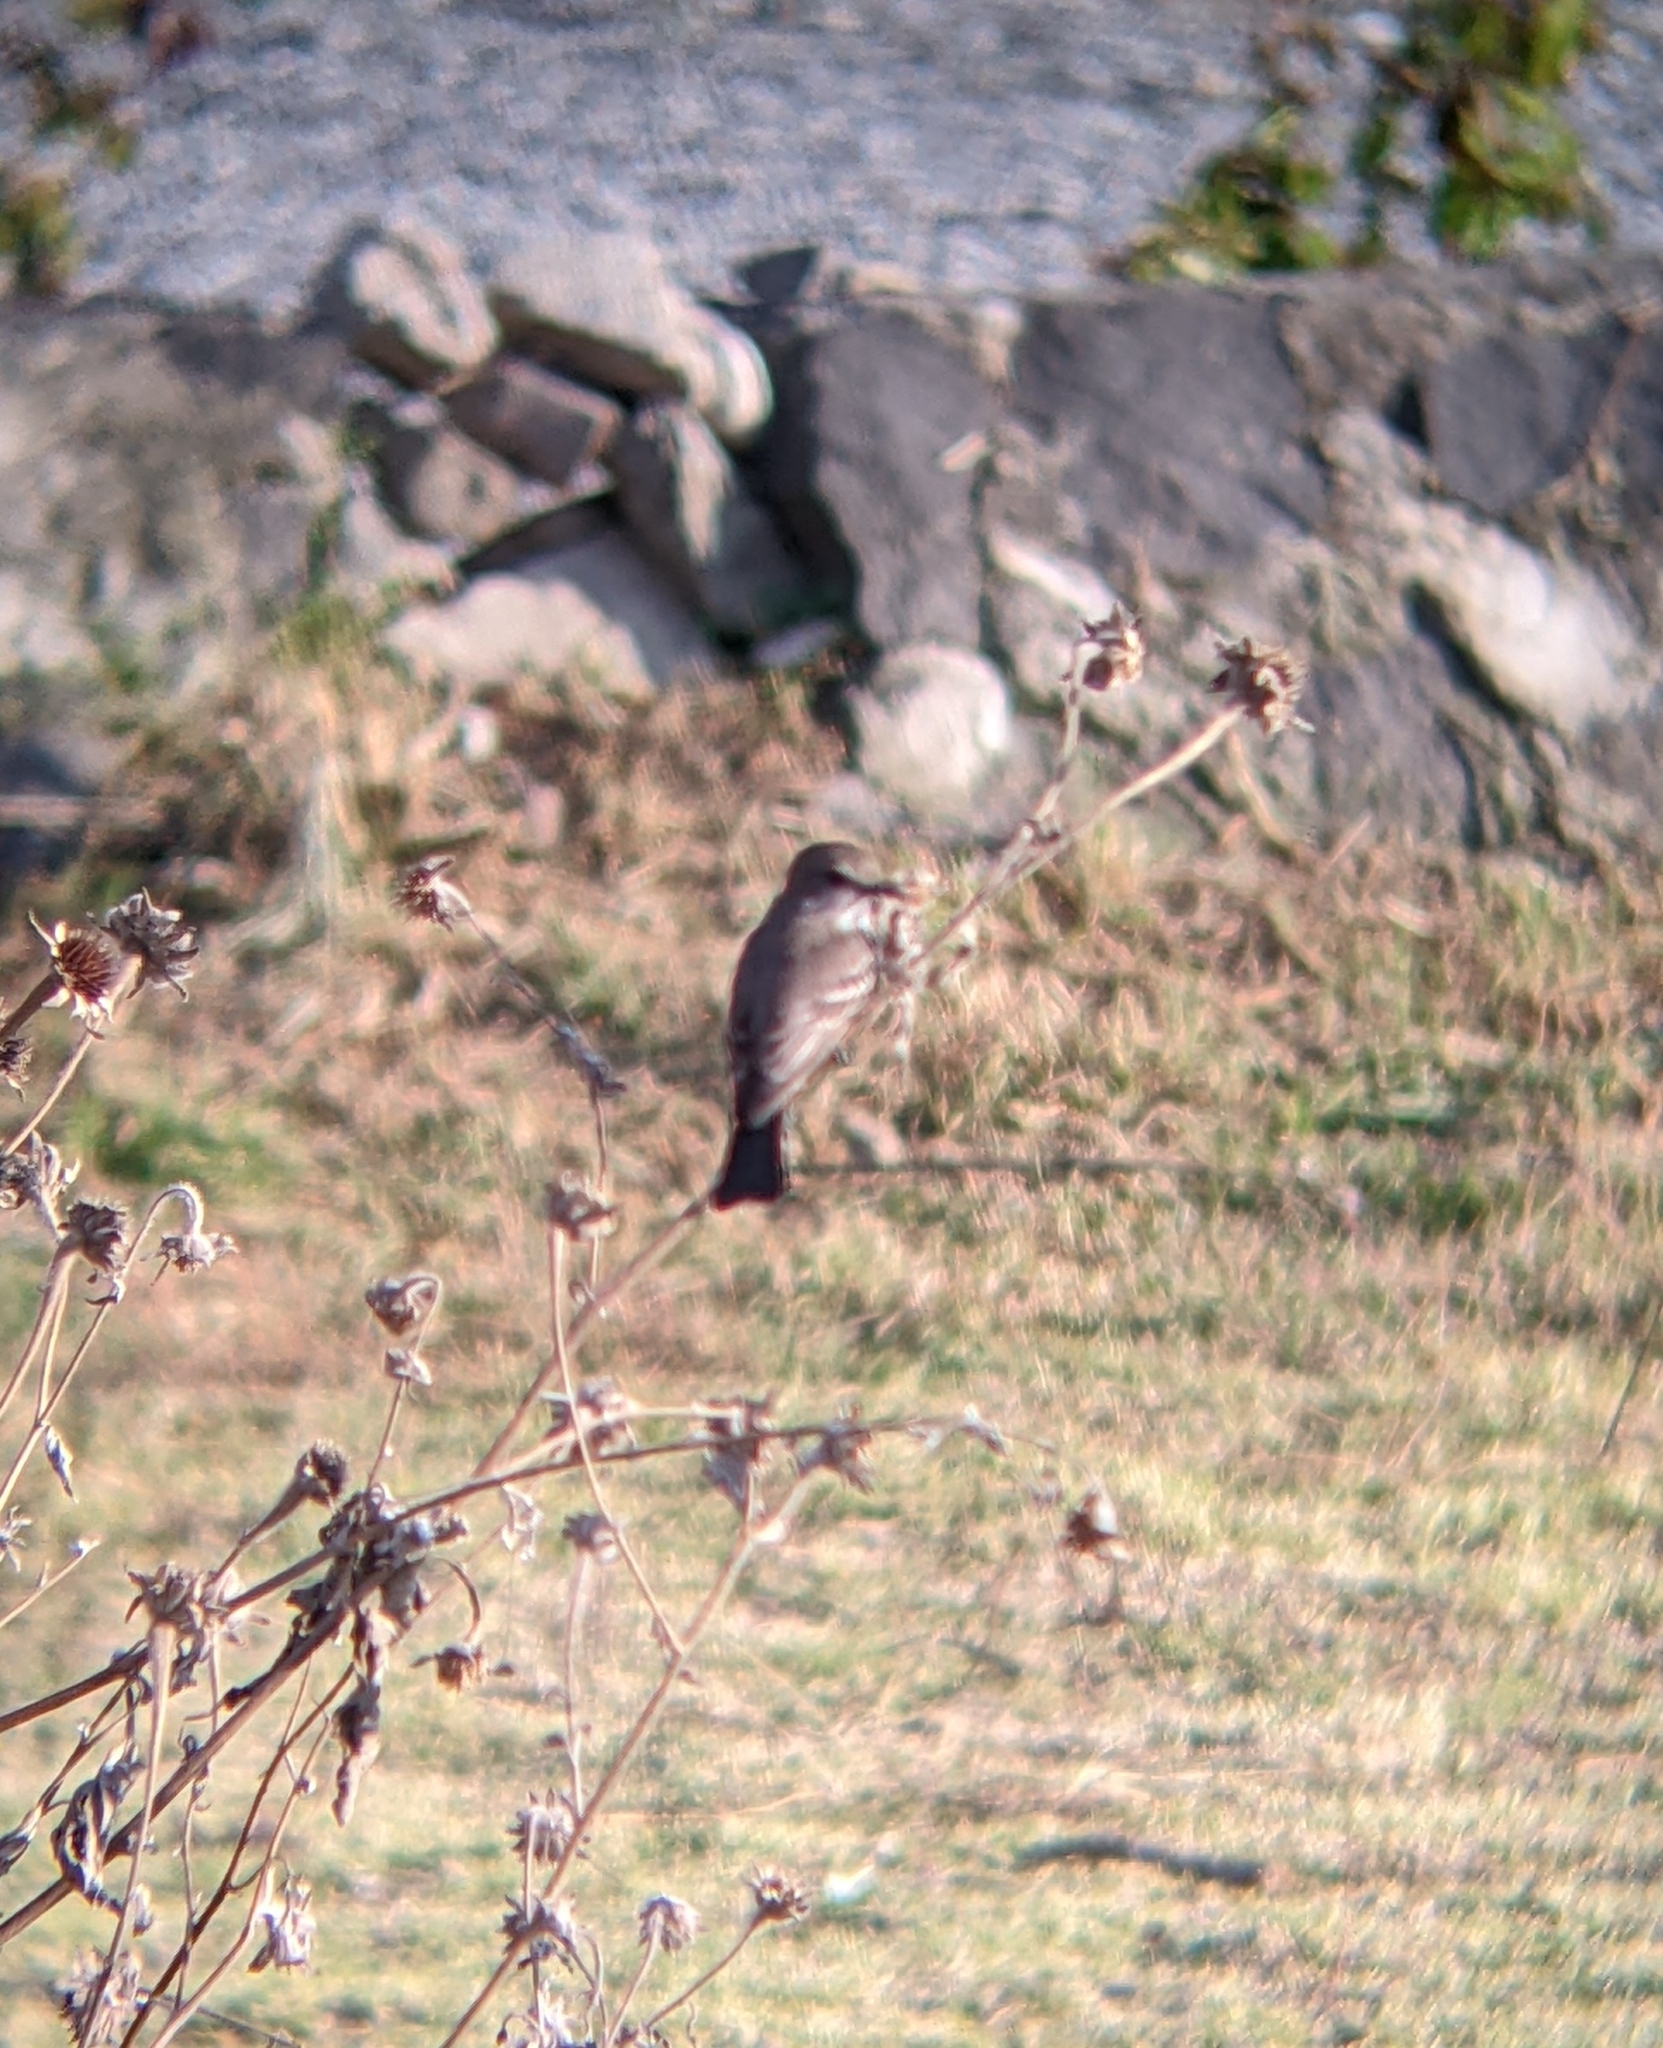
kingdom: Animalia
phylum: Chordata
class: Aves
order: Passeriformes
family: Tyrannidae
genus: Pyrocephalus
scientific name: Pyrocephalus rubinus
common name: Vermilion flycatcher
